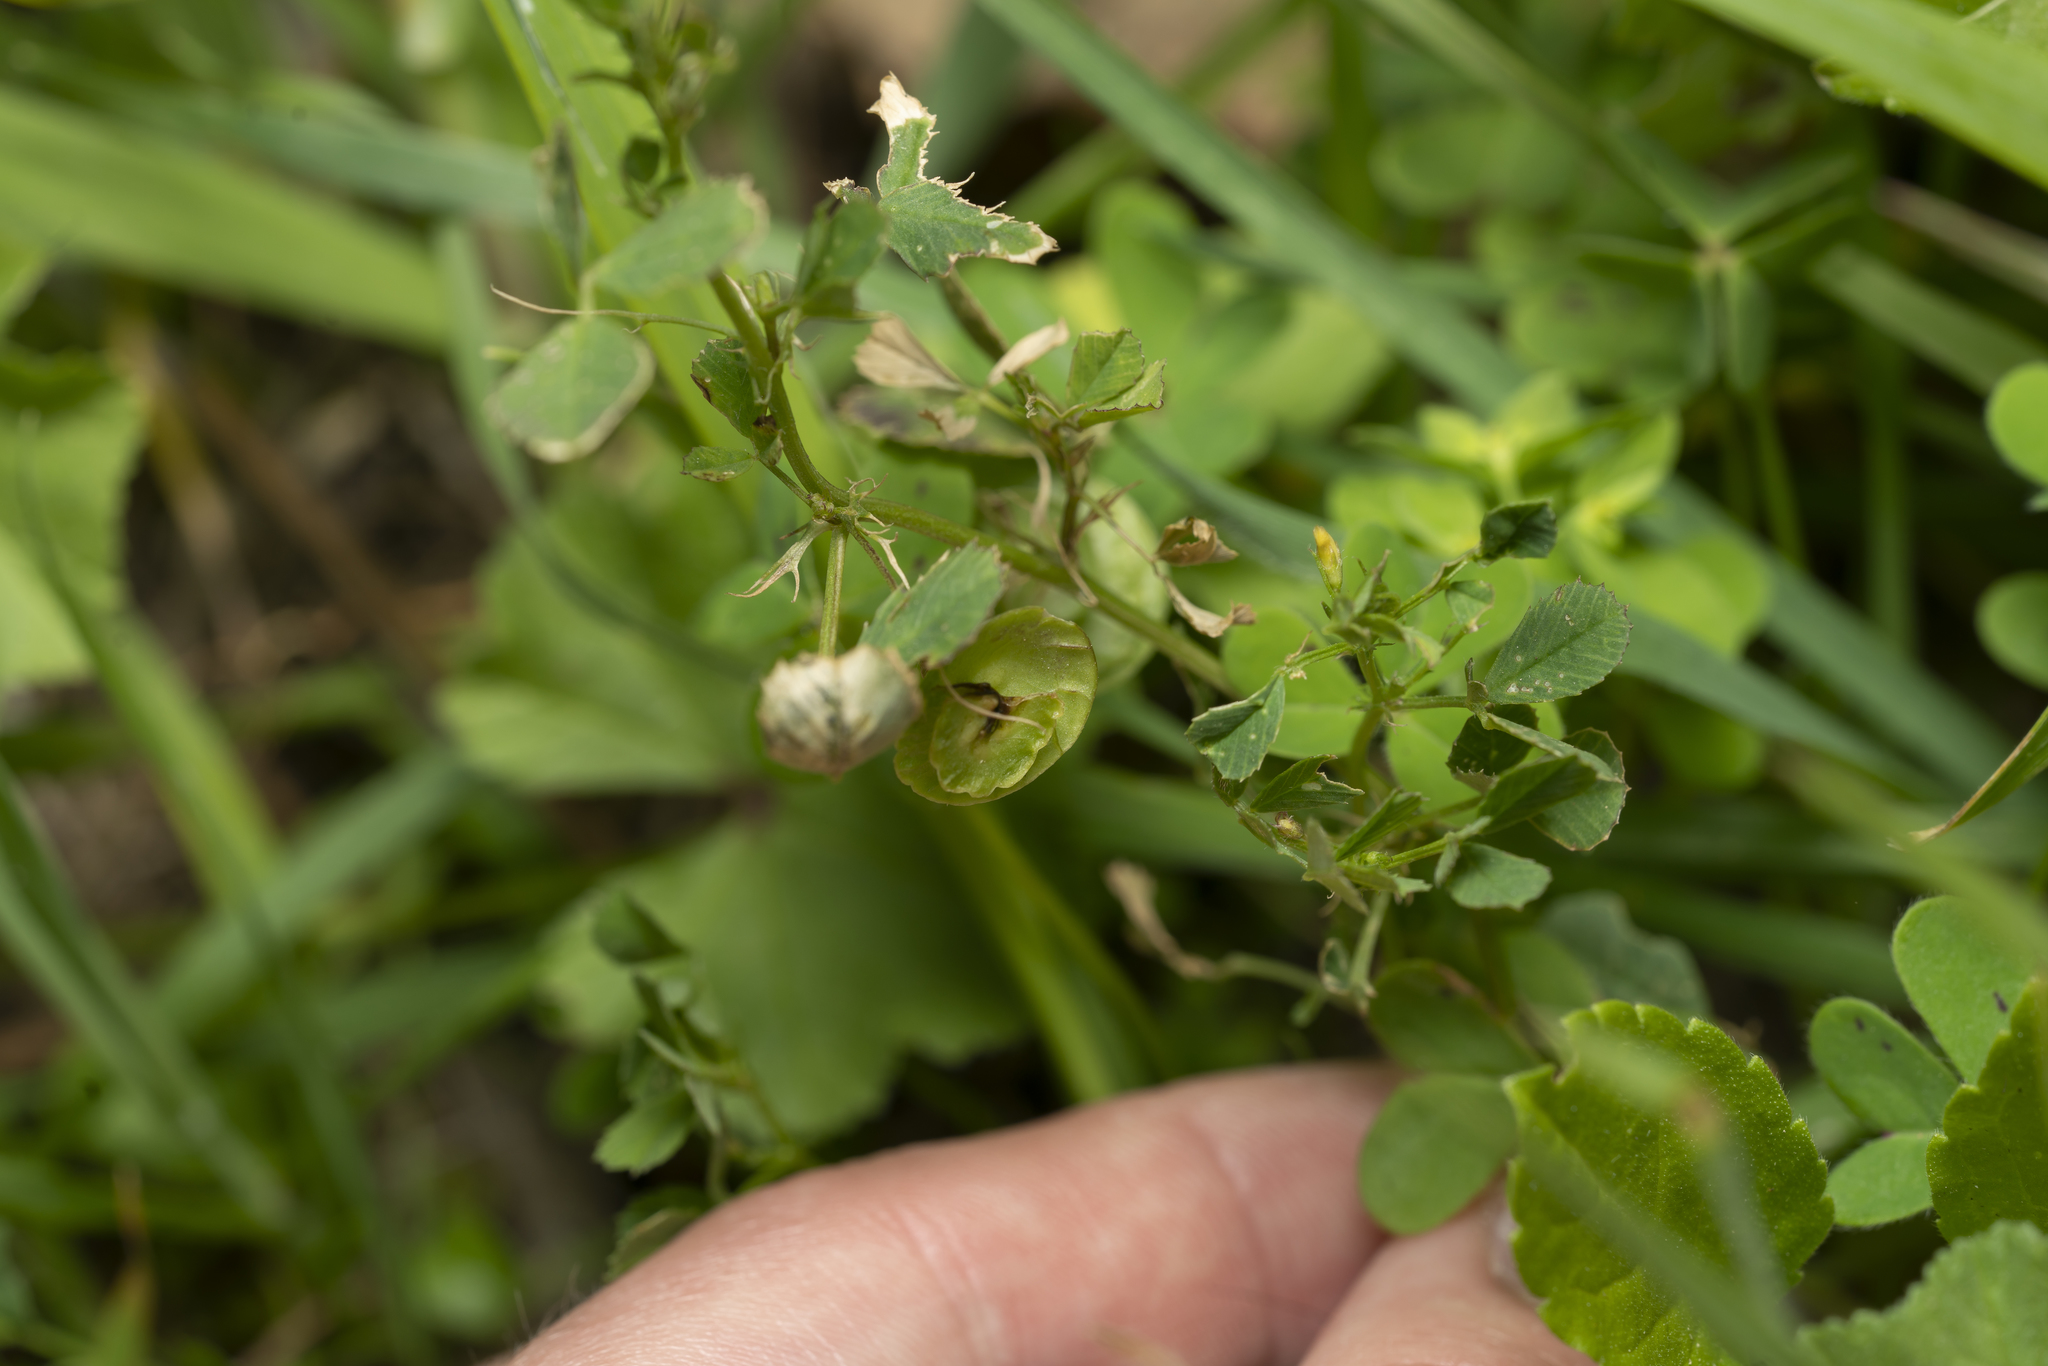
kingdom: Plantae
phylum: Tracheophyta
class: Magnoliopsida
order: Fabales
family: Fabaceae
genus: Medicago
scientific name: Medicago orbicularis
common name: Button medick
